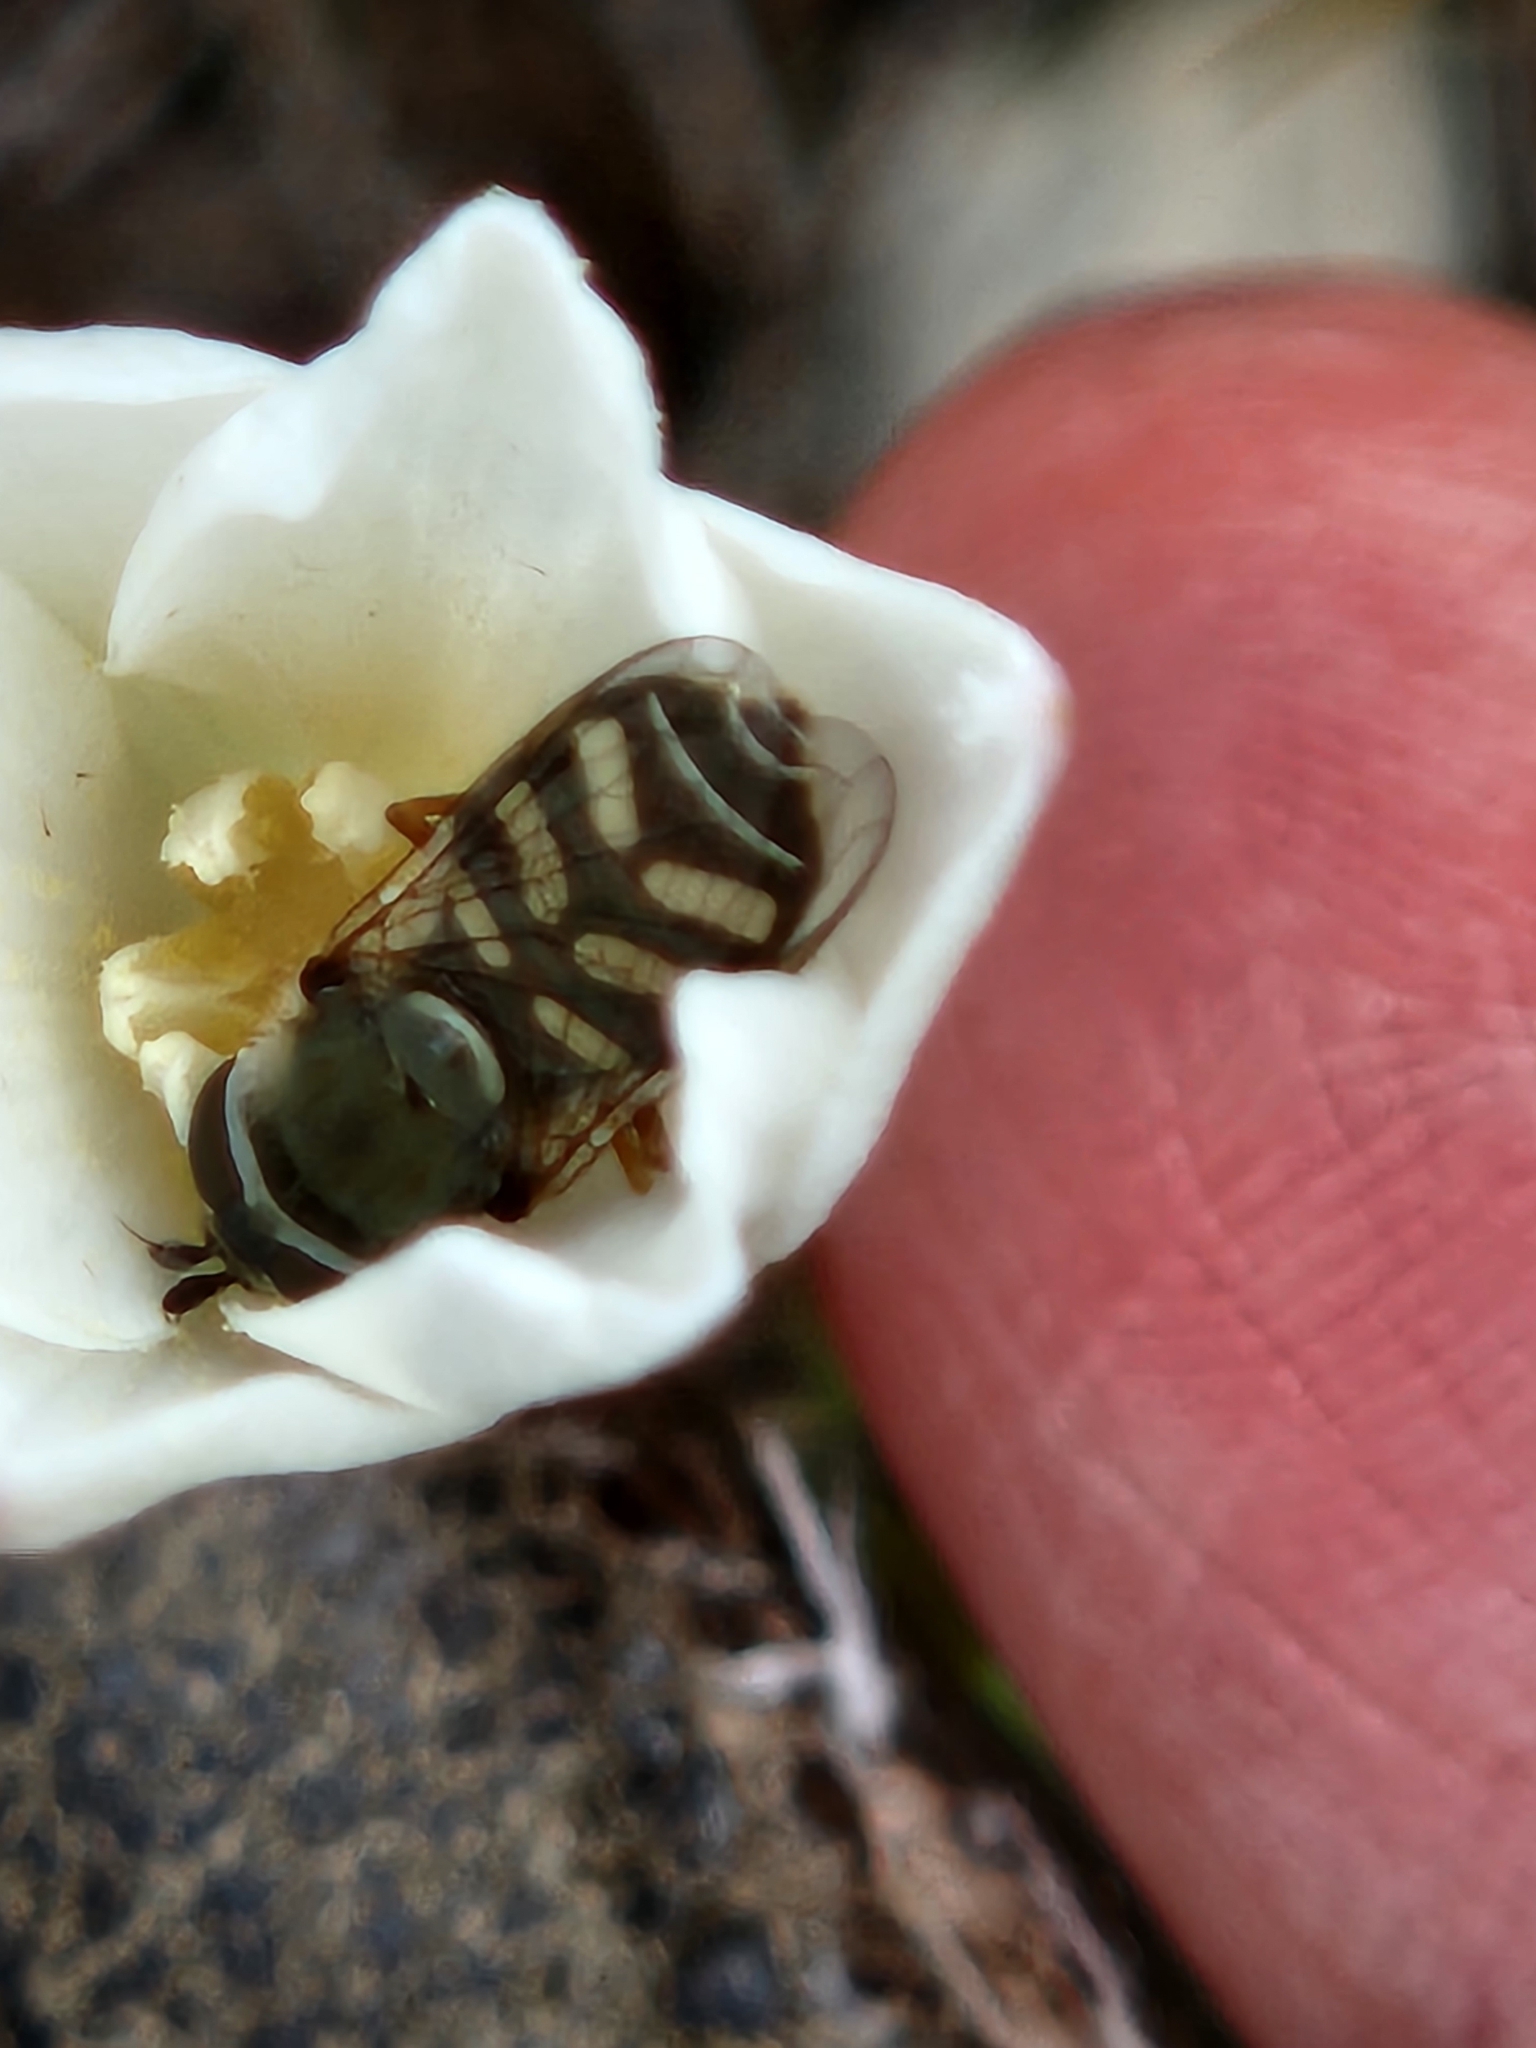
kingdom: Animalia
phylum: Arthropoda
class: Insecta
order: Diptera
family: Syrphidae
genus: Eupeodes
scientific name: Eupeodes volucris
